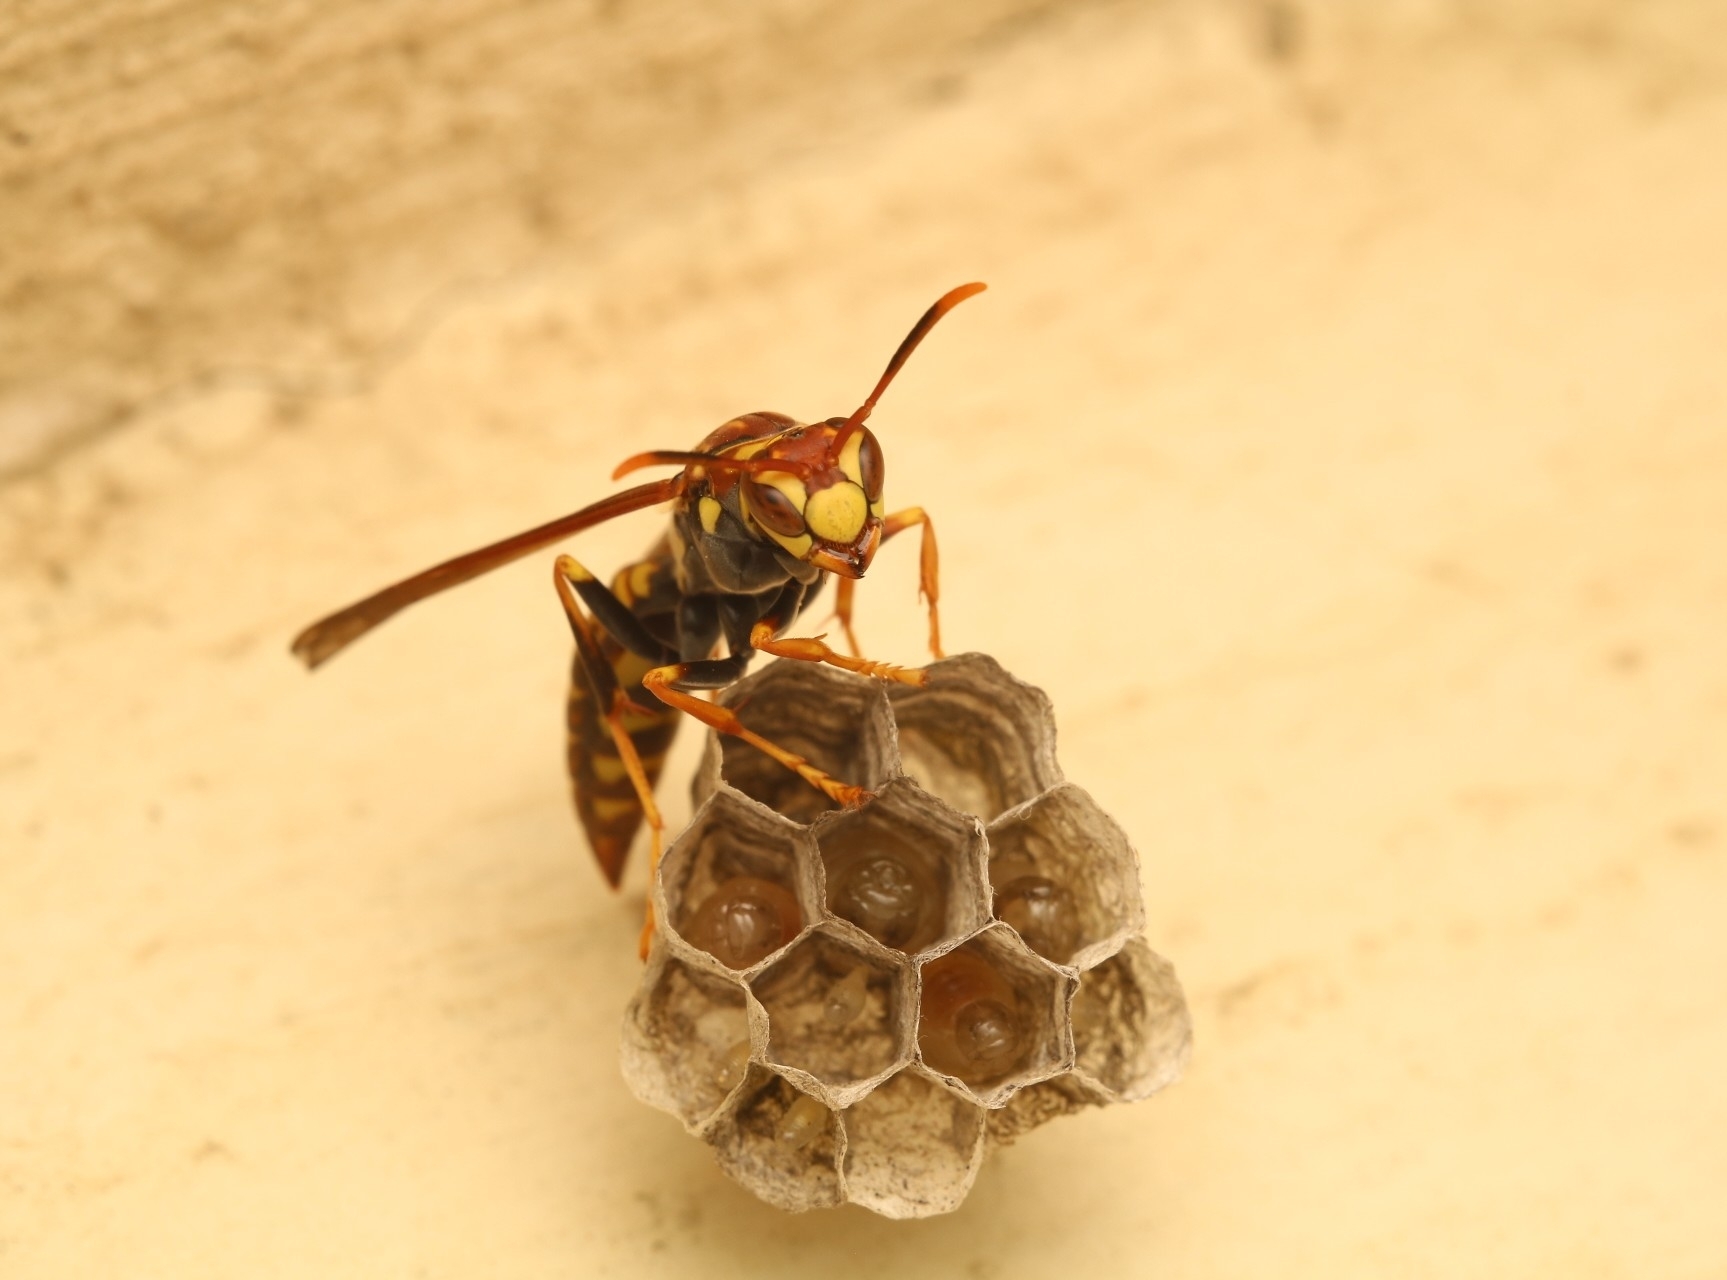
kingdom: Animalia
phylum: Arthropoda
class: Insecta
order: Hymenoptera
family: Eumenidae
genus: Polistes
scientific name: Polistes myersi
